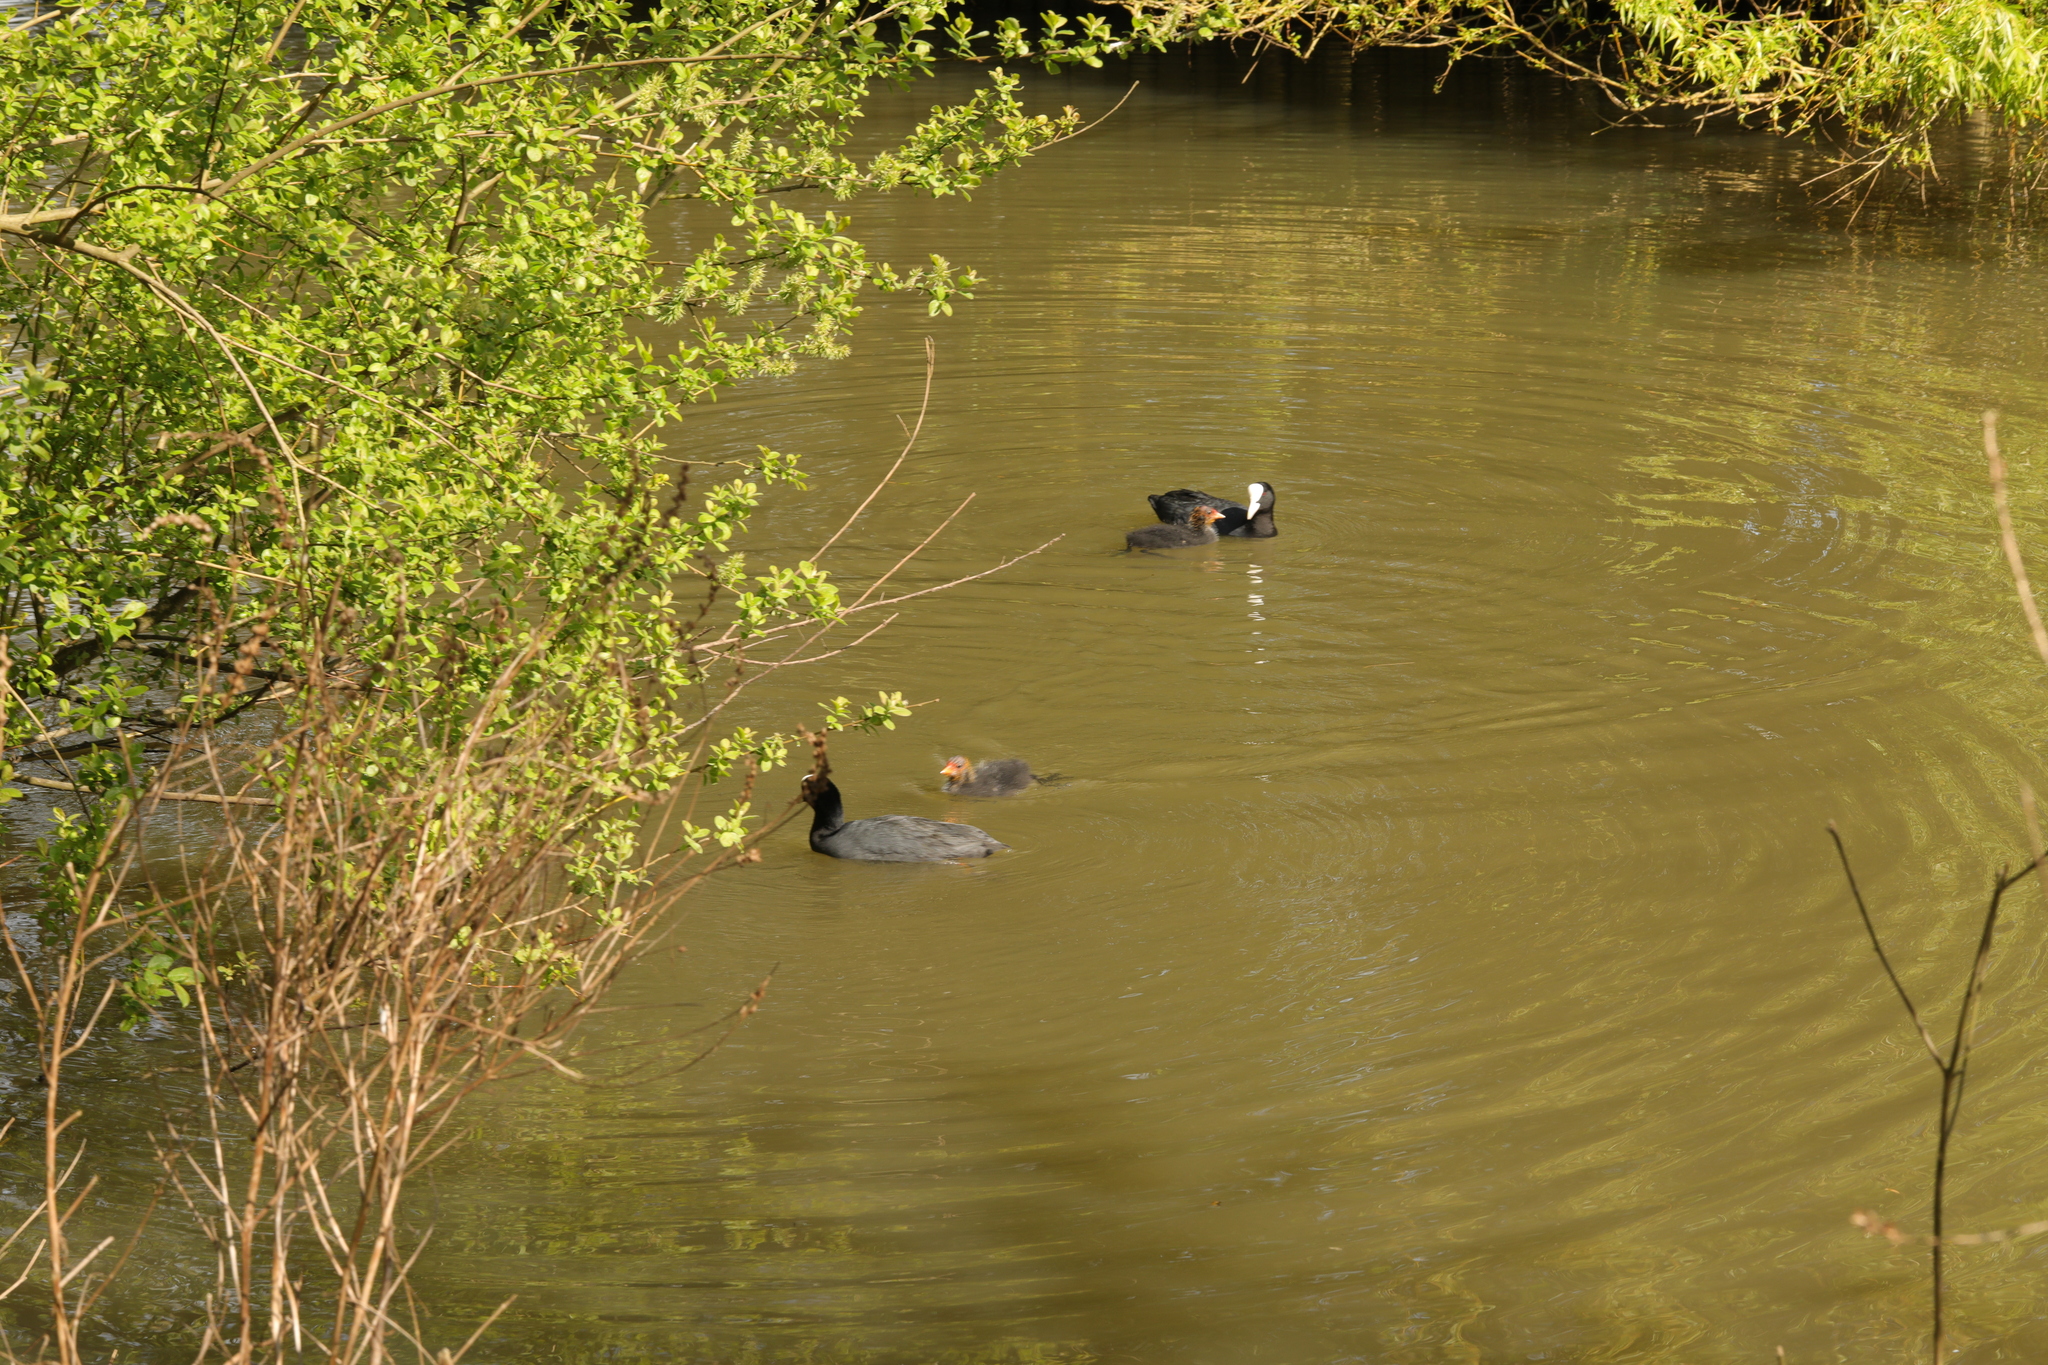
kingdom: Animalia
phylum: Chordata
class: Aves
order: Gruiformes
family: Rallidae
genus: Fulica
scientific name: Fulica atra
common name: Eurasian coot
